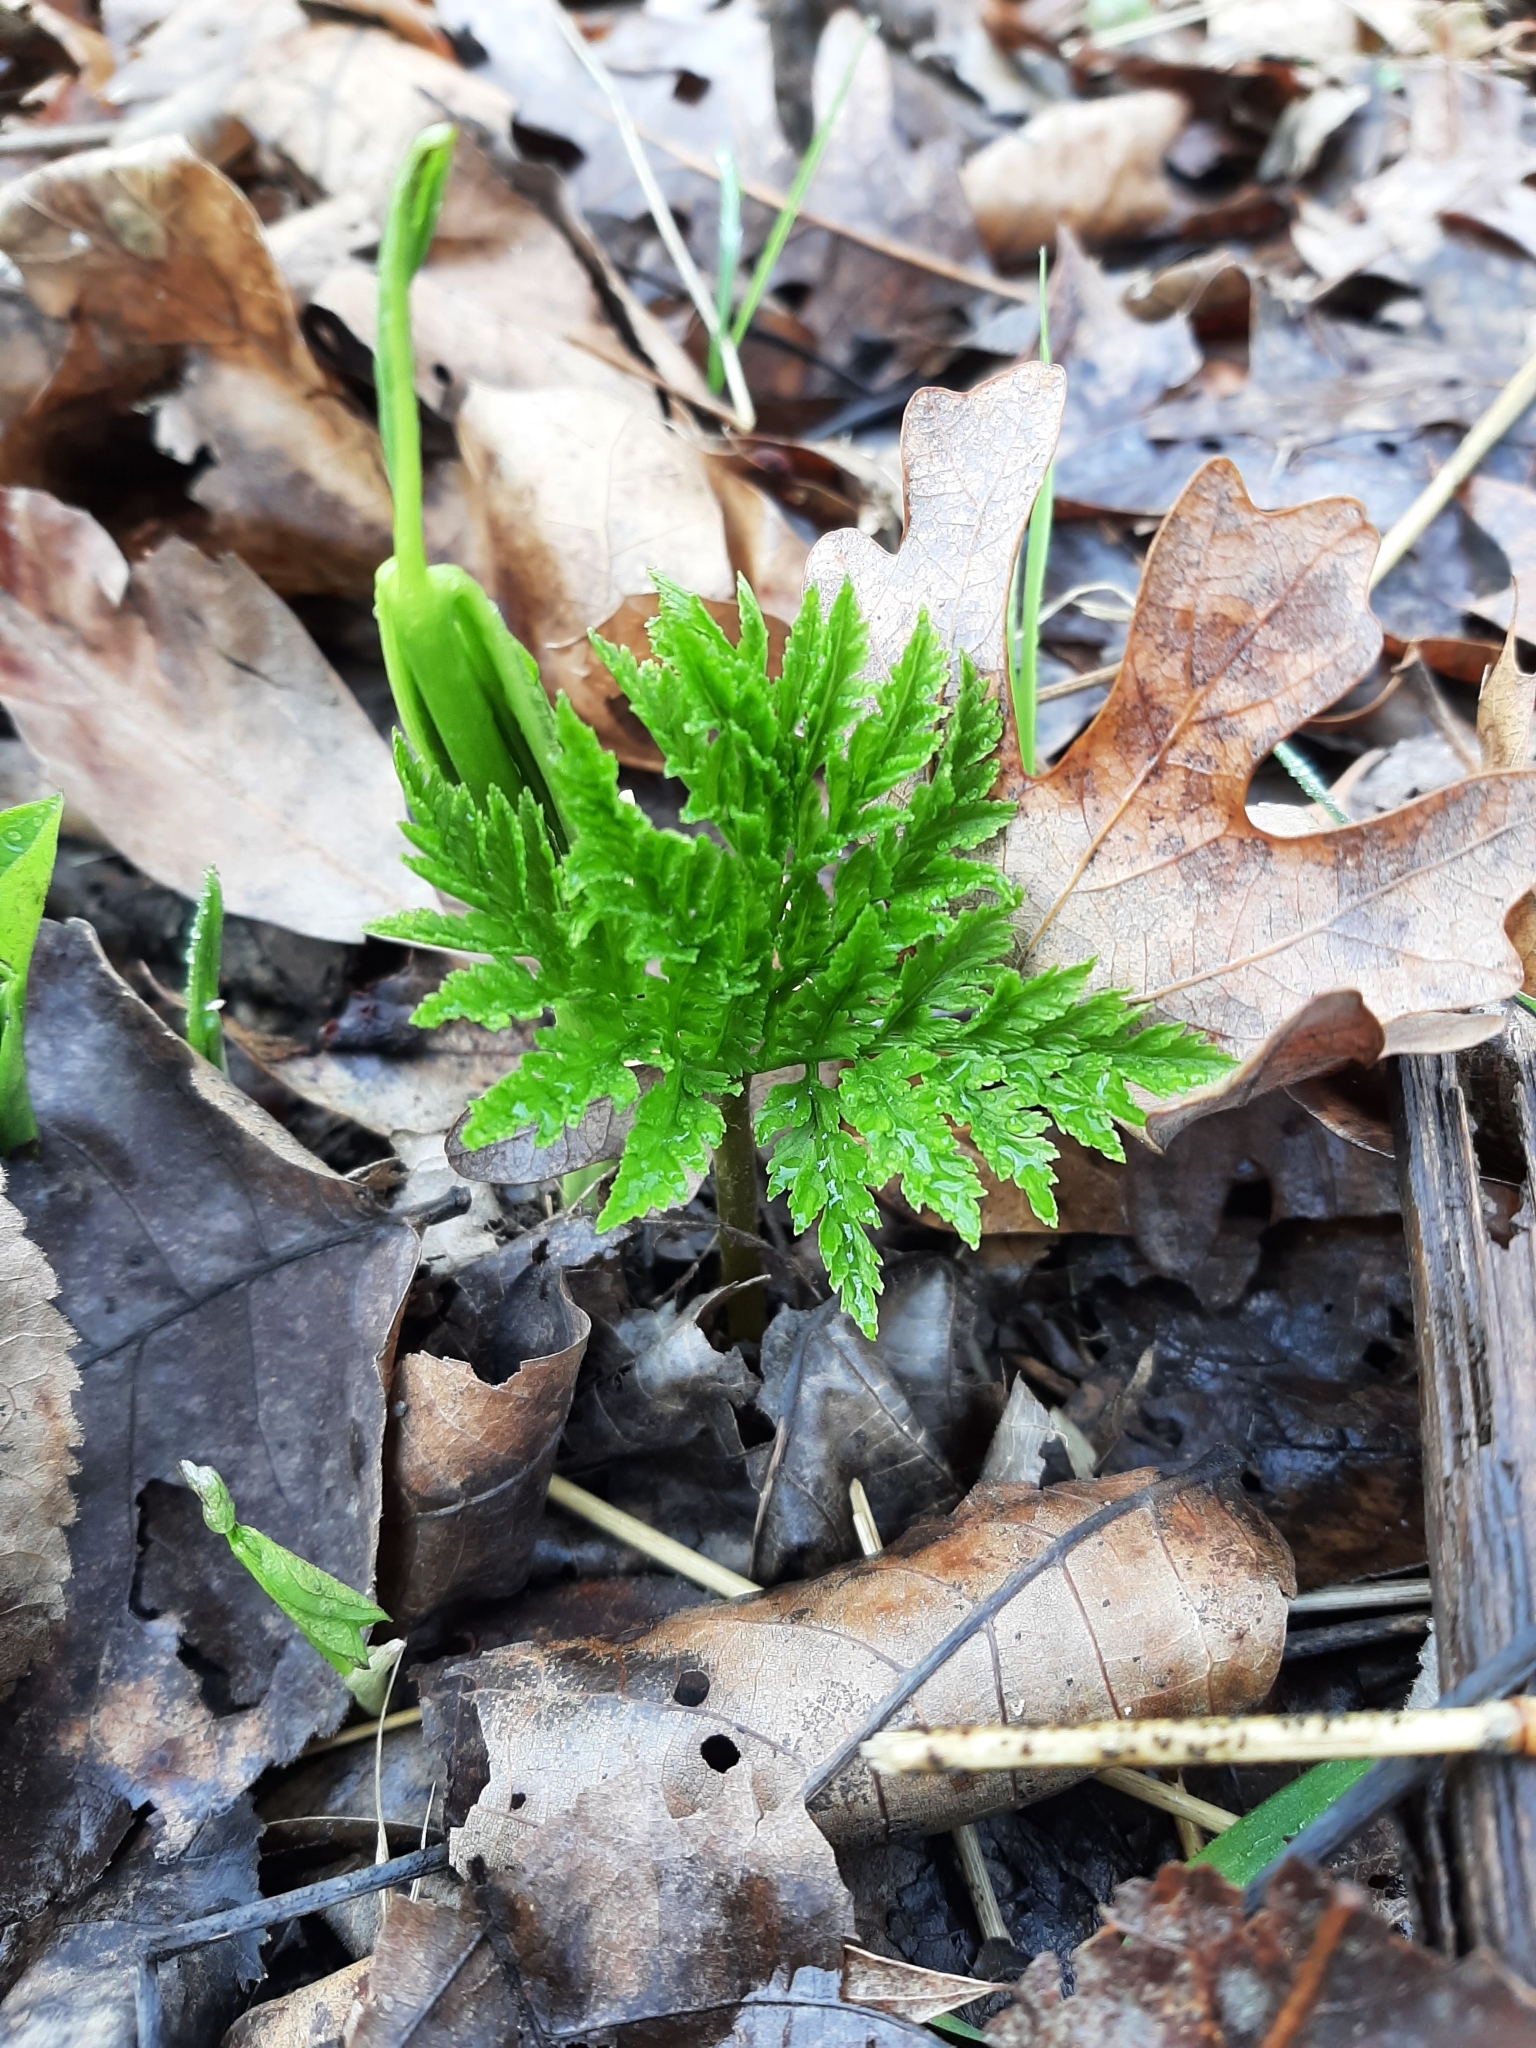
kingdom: Plantae
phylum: Tracheophyta
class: Polypodiopsida
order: Ophioglossales
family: Ophioglossaceae
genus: Botrypus
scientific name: Botrypus virginianus
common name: Common grapefern
